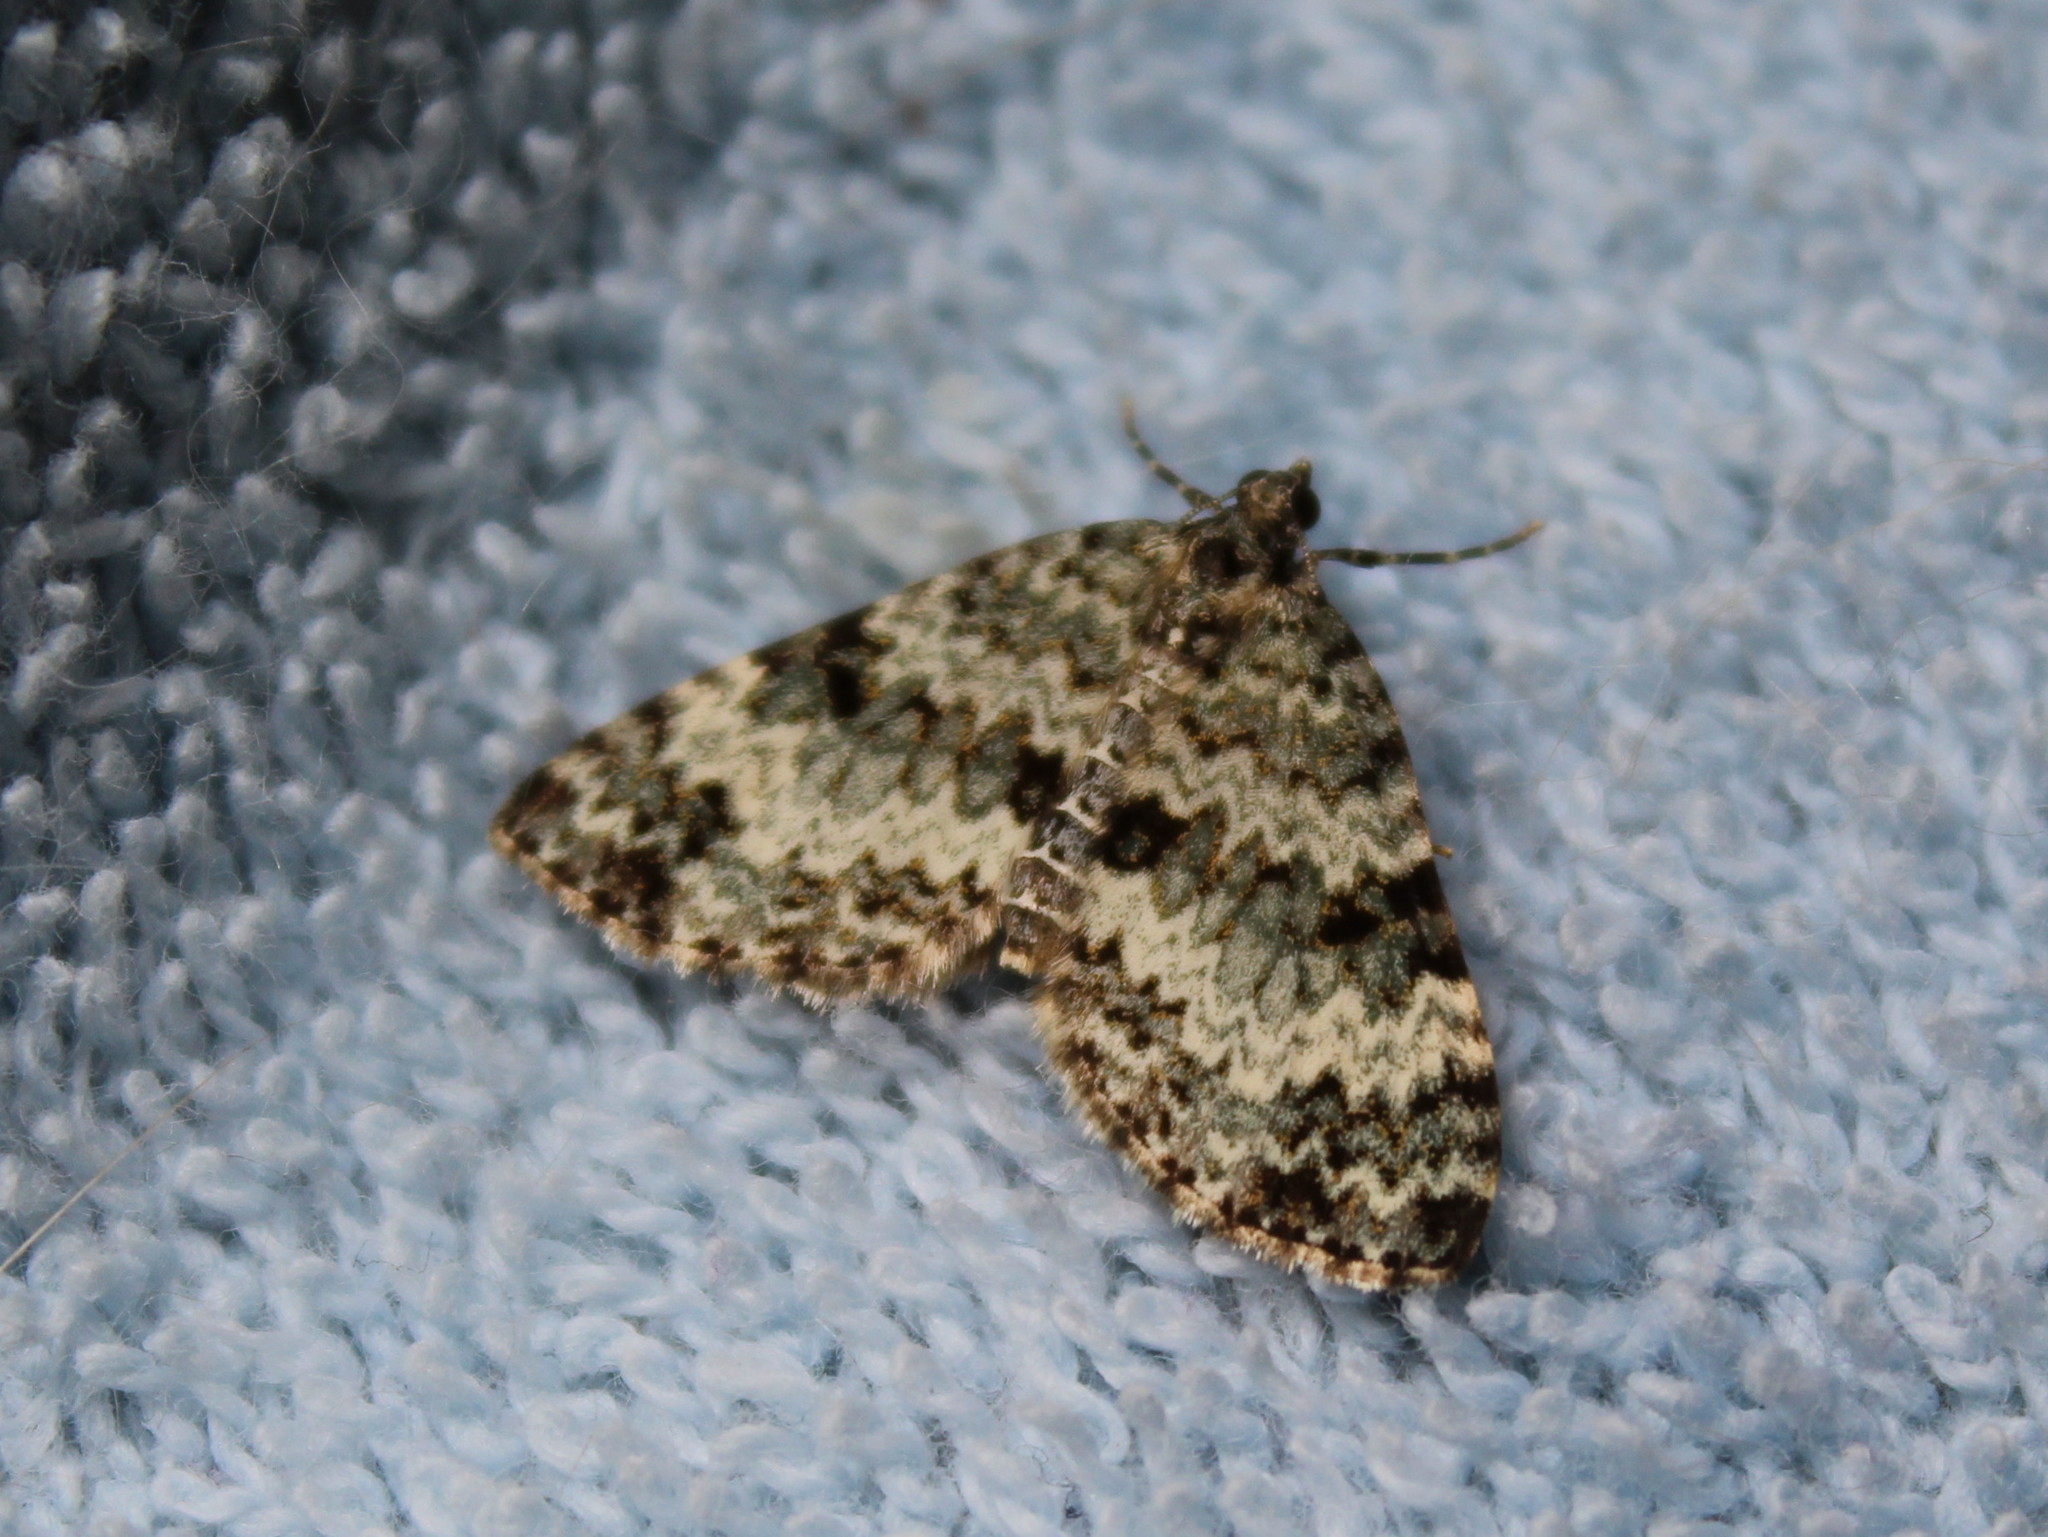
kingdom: Animalia
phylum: Arthropoda
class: Insecta
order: Lepidoptera
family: Geometridae
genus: Spargania
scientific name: Spargania magnoliata
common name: Double-banded carpet
